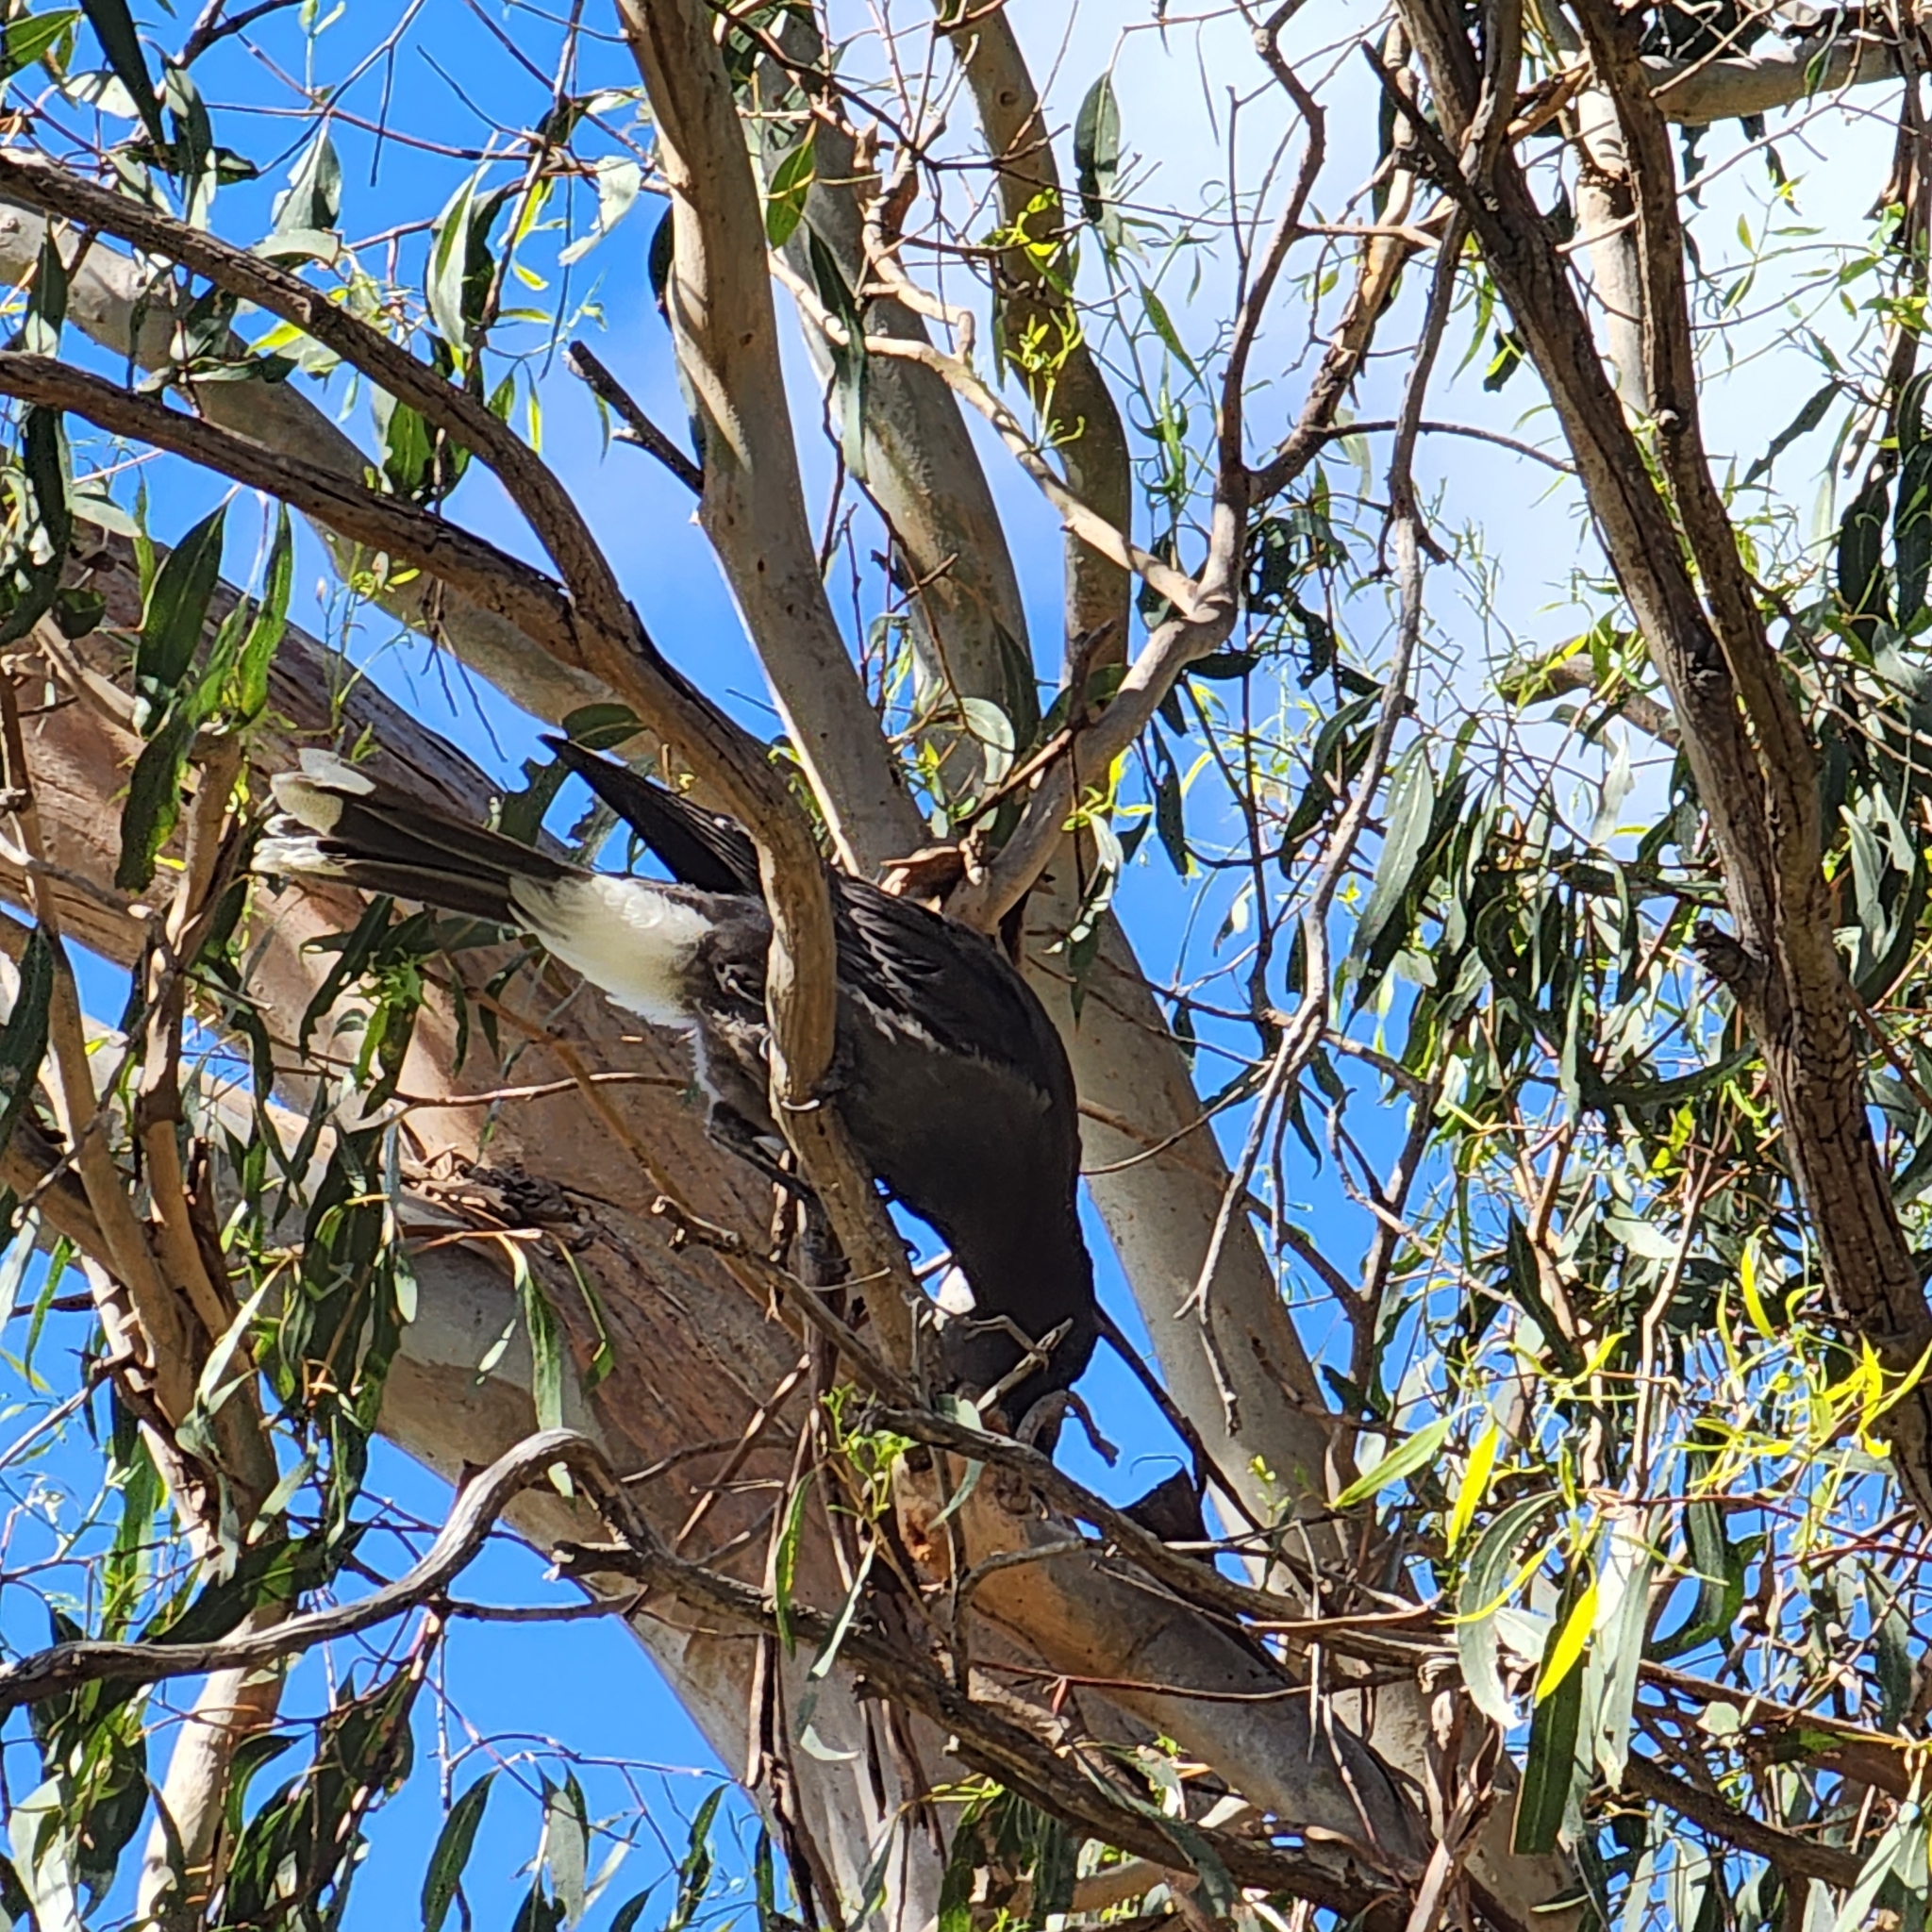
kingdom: Animalia
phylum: Chordata
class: Aves
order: Passeriformes
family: Cracticidae
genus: Strepera
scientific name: Strepera graculina
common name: Pied currawong
